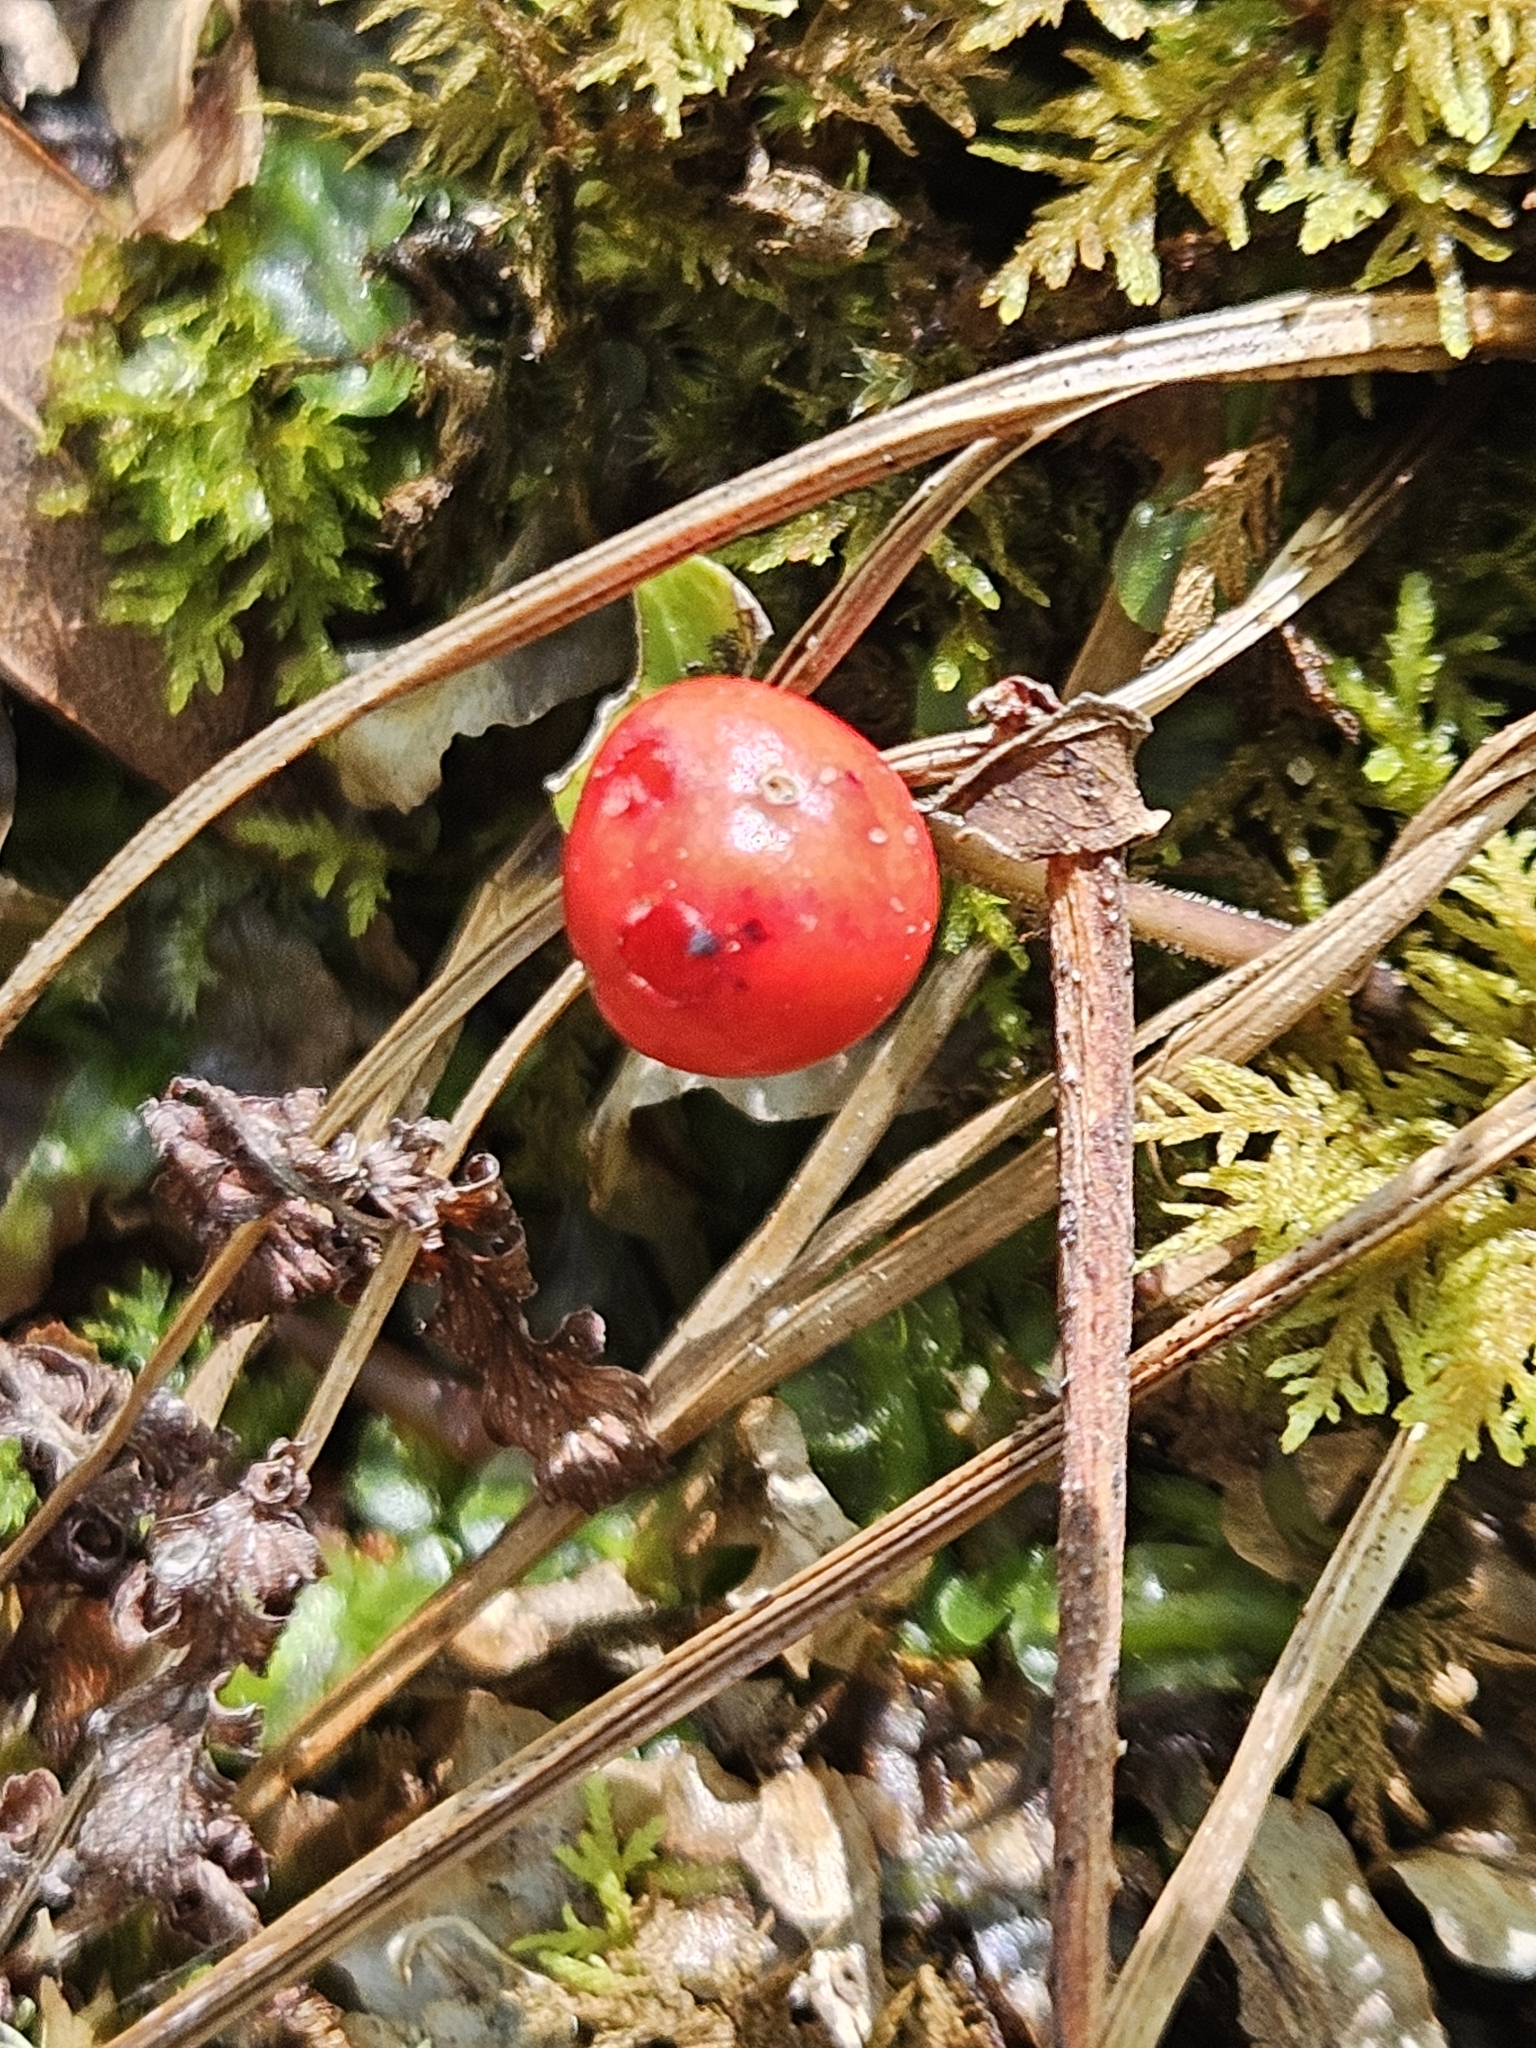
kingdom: Plantae
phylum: Tracheophyta
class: Magnoliopsida
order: Gentianales
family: Rubiaceae
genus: Mitchella
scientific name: Mitchella repens
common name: Partridge-berry
